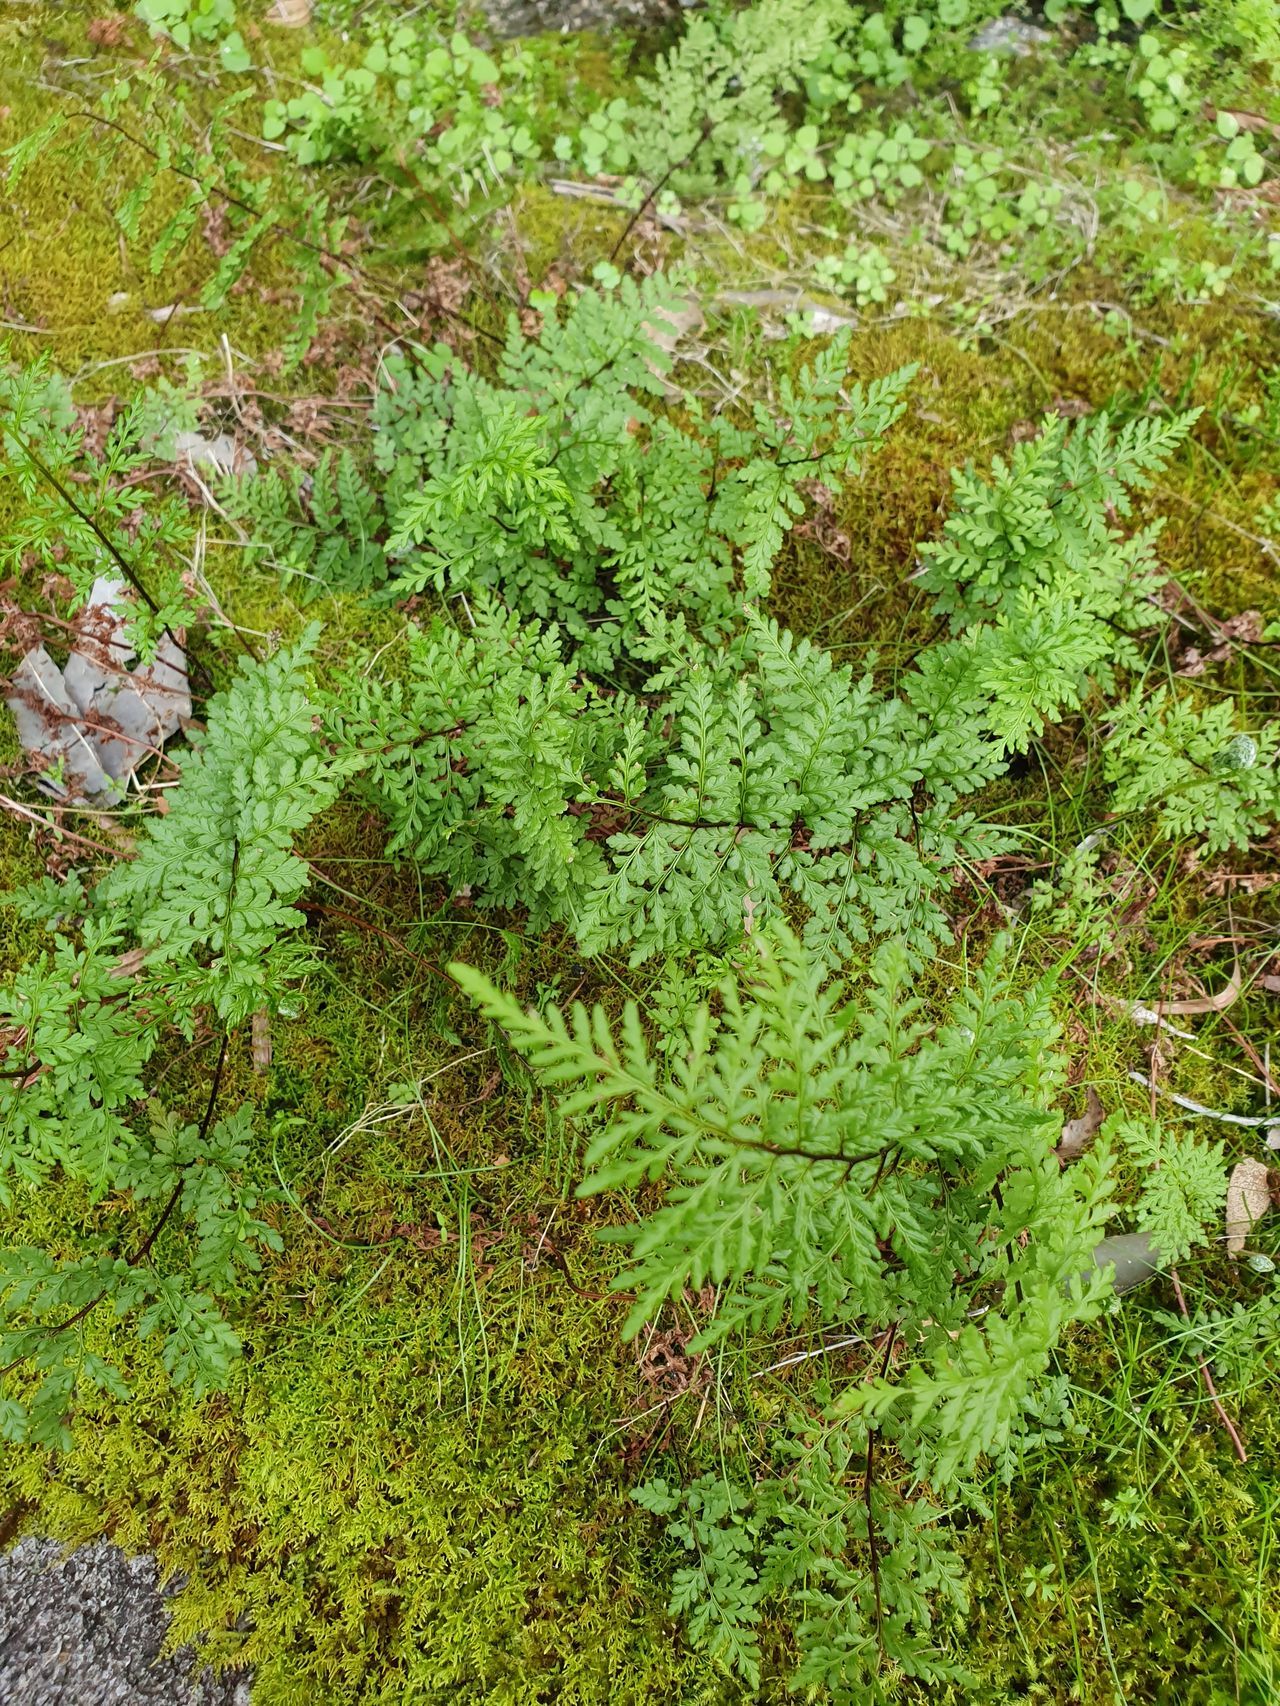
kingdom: Plantae
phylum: Tracheophyta
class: Polypodiopsida
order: Polypodiales
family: Pteridaceae
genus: Cheilanthes
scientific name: Cheilanthes austrotenuifolia
